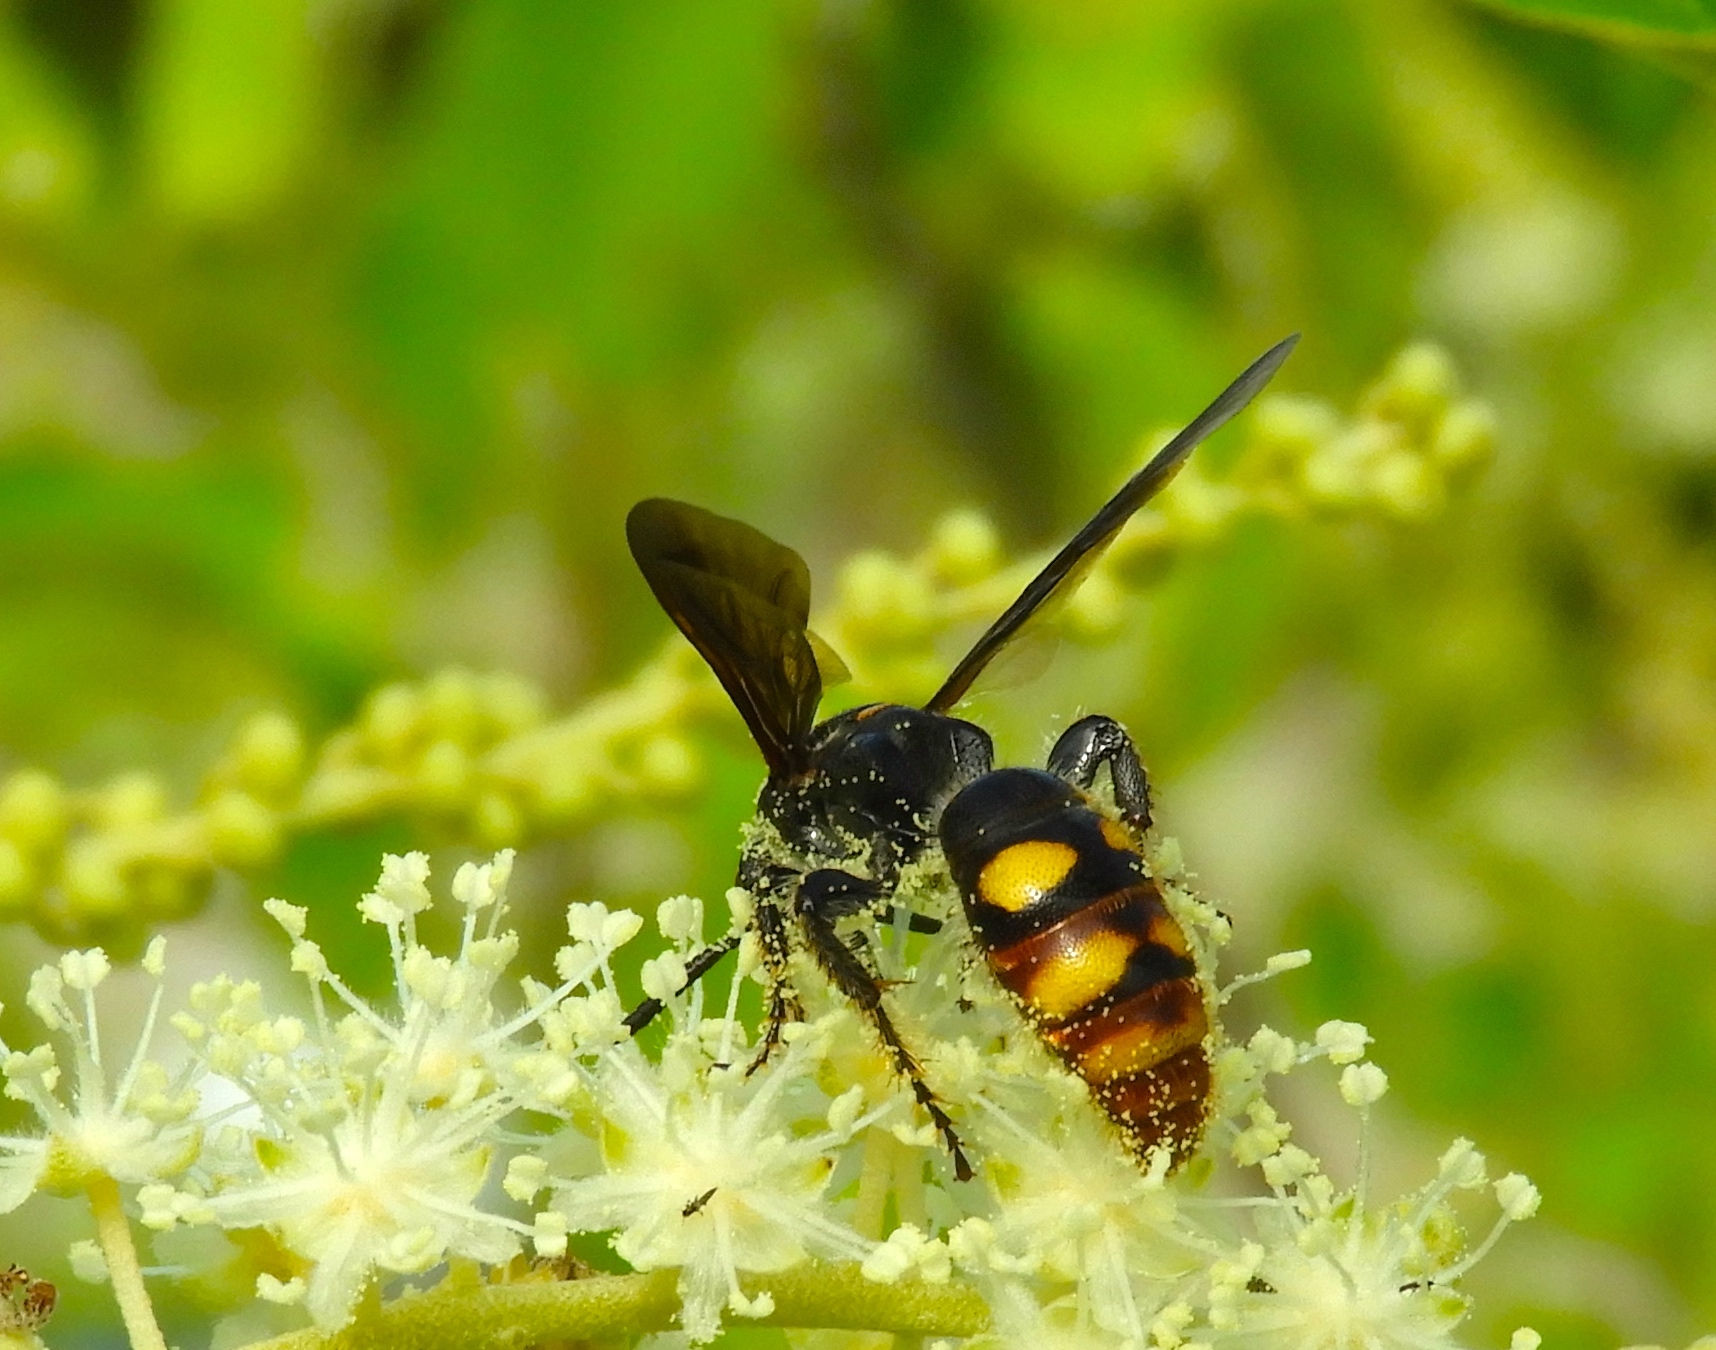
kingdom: Animalia
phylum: Arthropoda
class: Insecta
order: Hymenoptera
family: Scoliidae
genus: Scolia
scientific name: Scolia nobilitata
